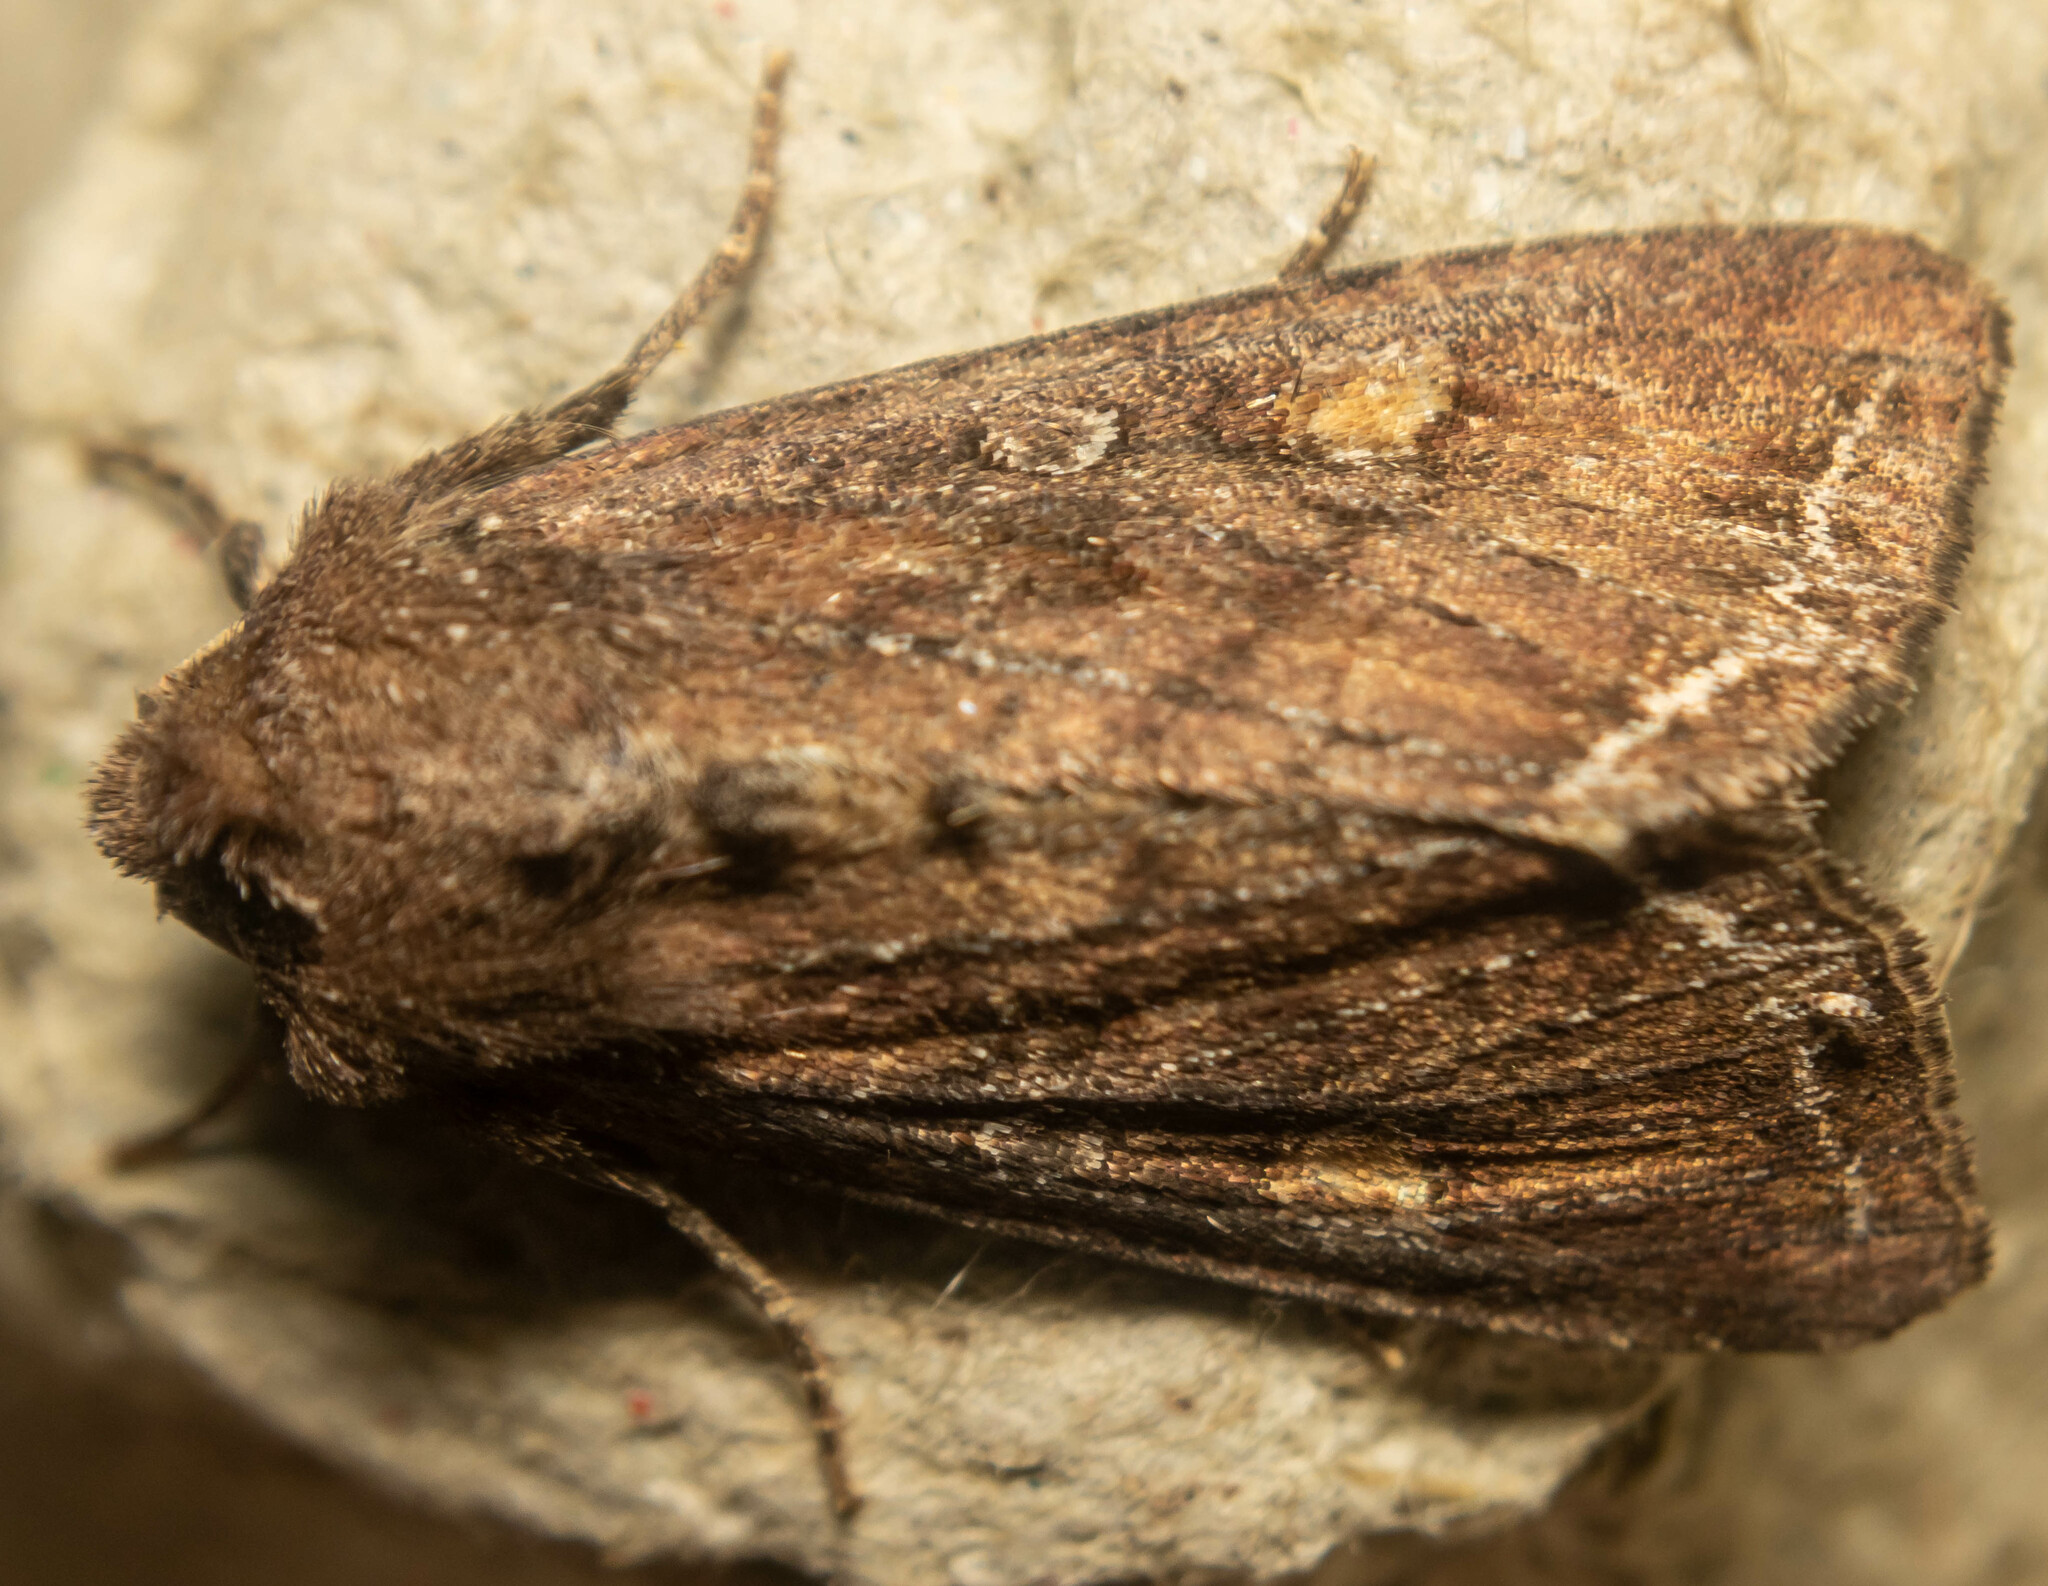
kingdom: Animalia
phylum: Arthropoda
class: Insecta
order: Lepidoptera
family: Noctuidae
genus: Lacanobia
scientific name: Lacanobia oleracea
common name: Bright-line brown-eye
